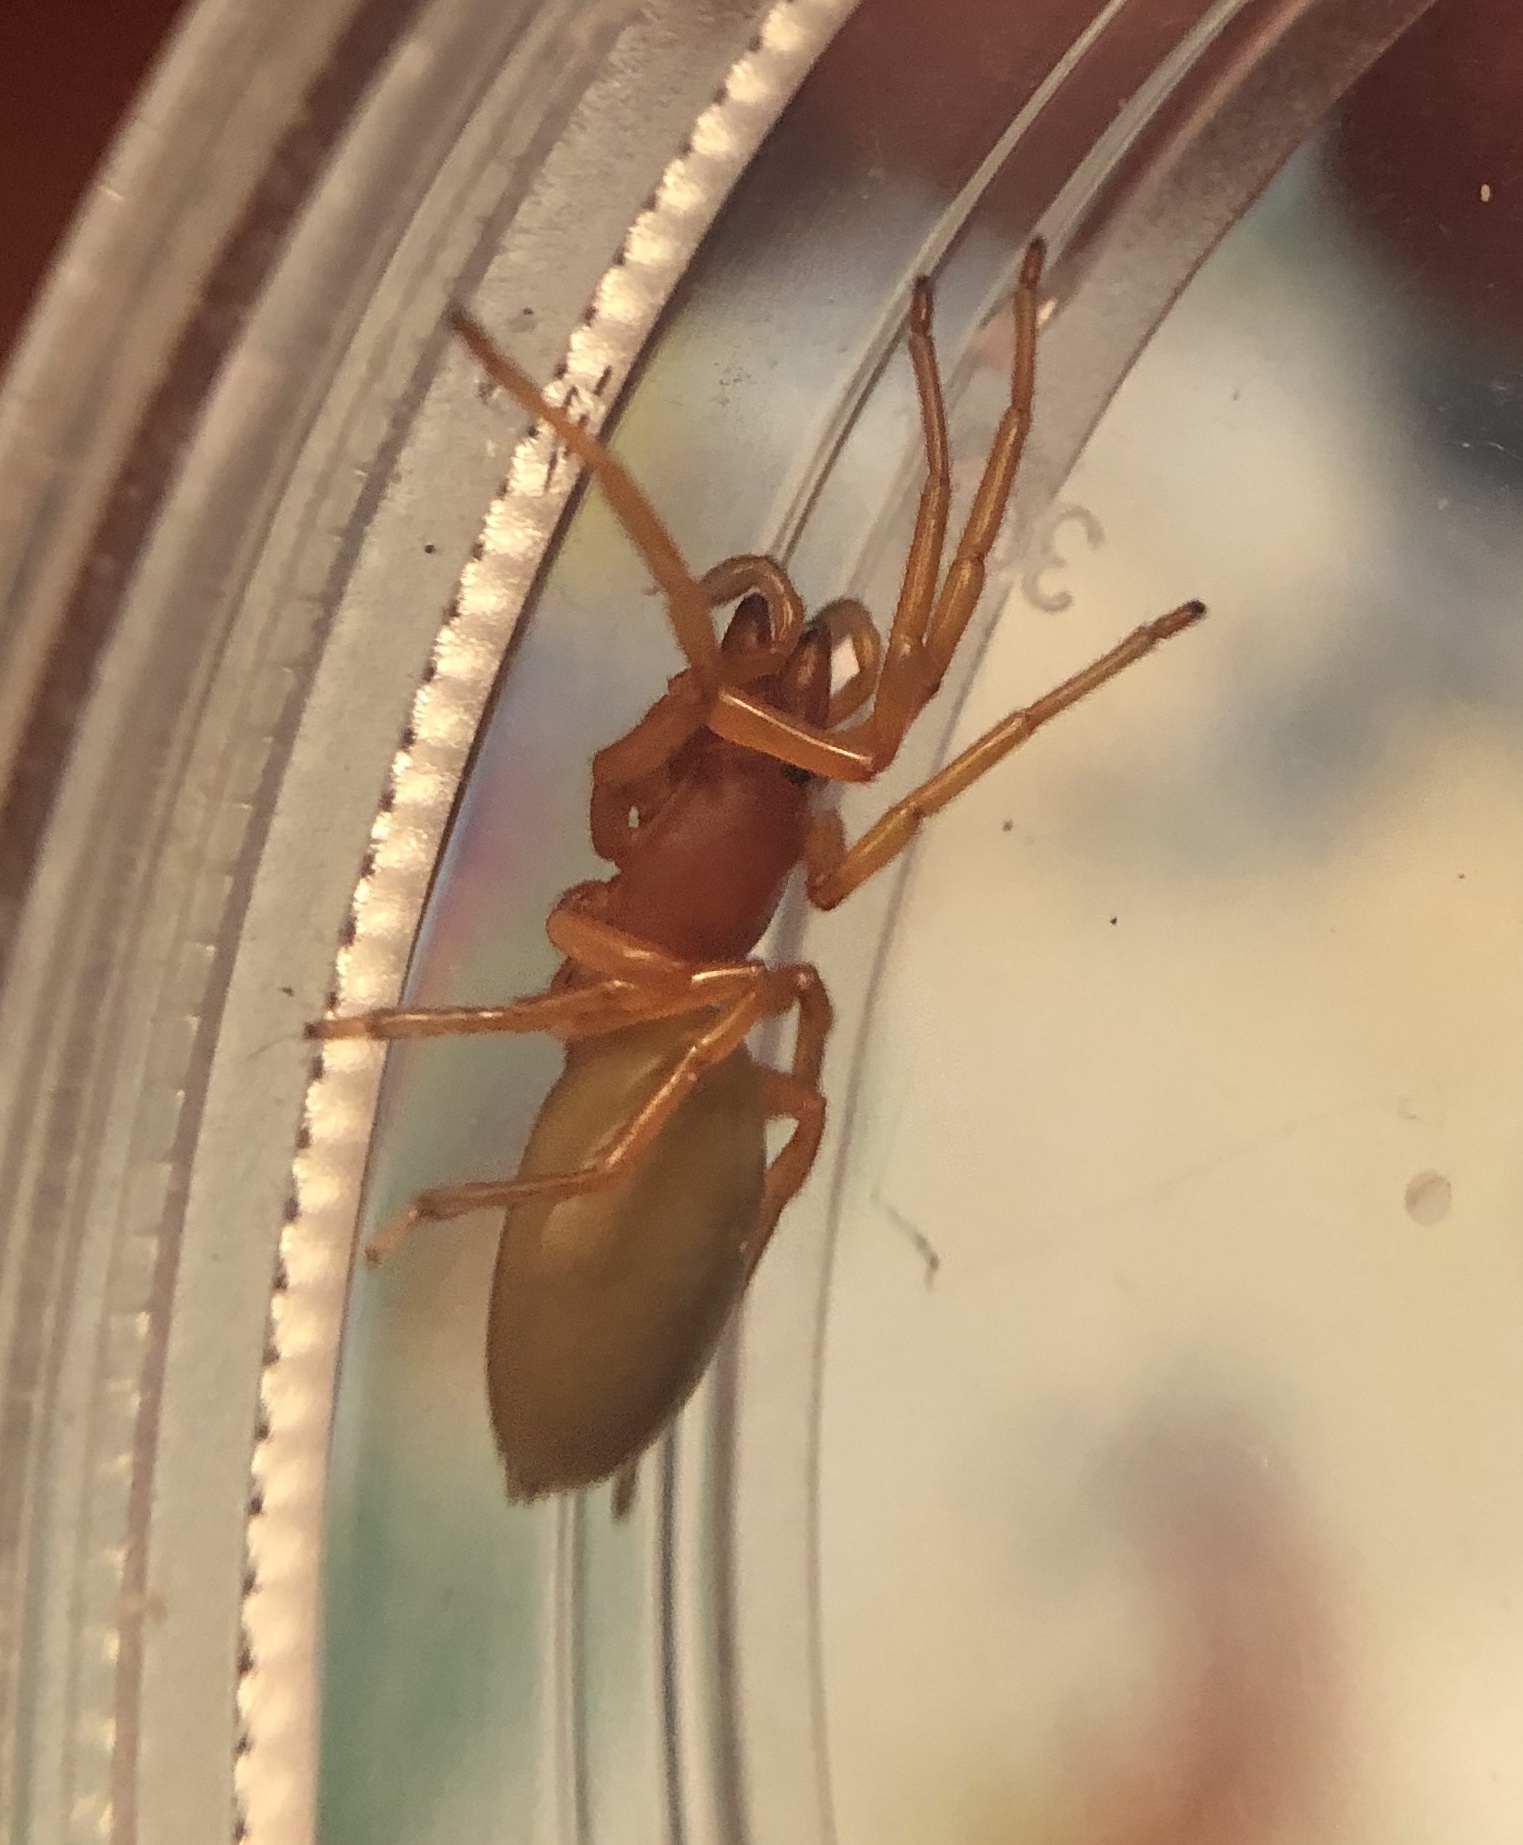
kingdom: Animalia
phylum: Arthropoda
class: Arachnida
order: Araneae
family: Dysderidae
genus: Dysdera
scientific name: Dysdera crocata
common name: Woodlouse spider
